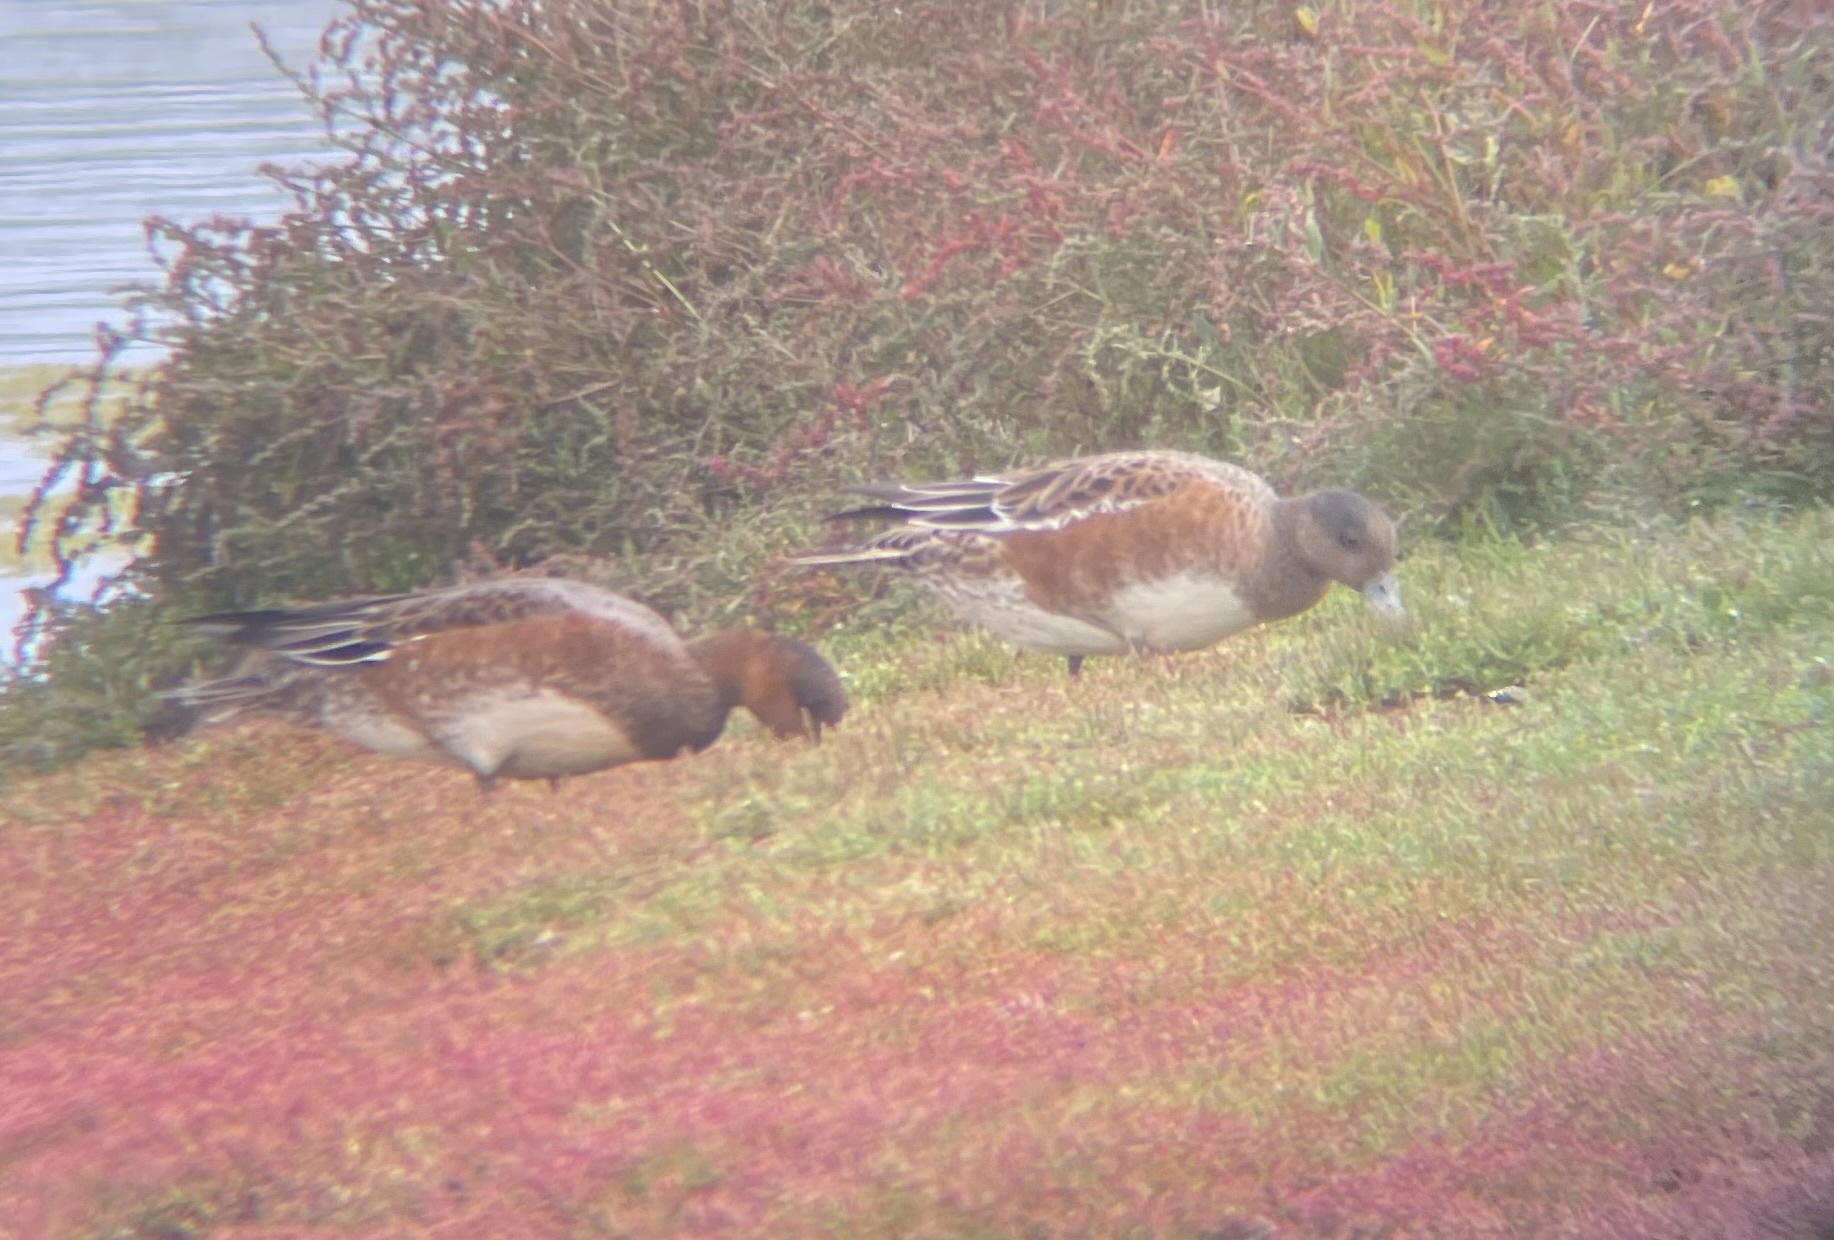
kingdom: Animalia
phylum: Chordata
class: Aves
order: Anseriformes
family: Anatidae
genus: Mareca
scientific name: Mareca penelope
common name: Eurasian wigeon
